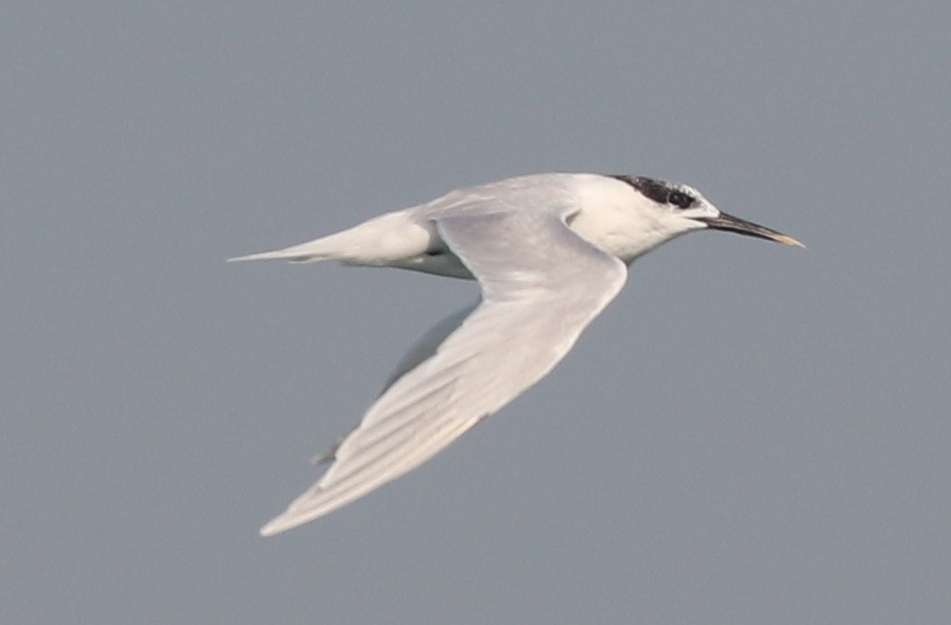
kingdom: Animalia
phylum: Chordata
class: Aves
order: Charadriiformes
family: Laridae
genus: Thalasseus
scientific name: Thalasseus sandvicensis
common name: Sandwich tern
